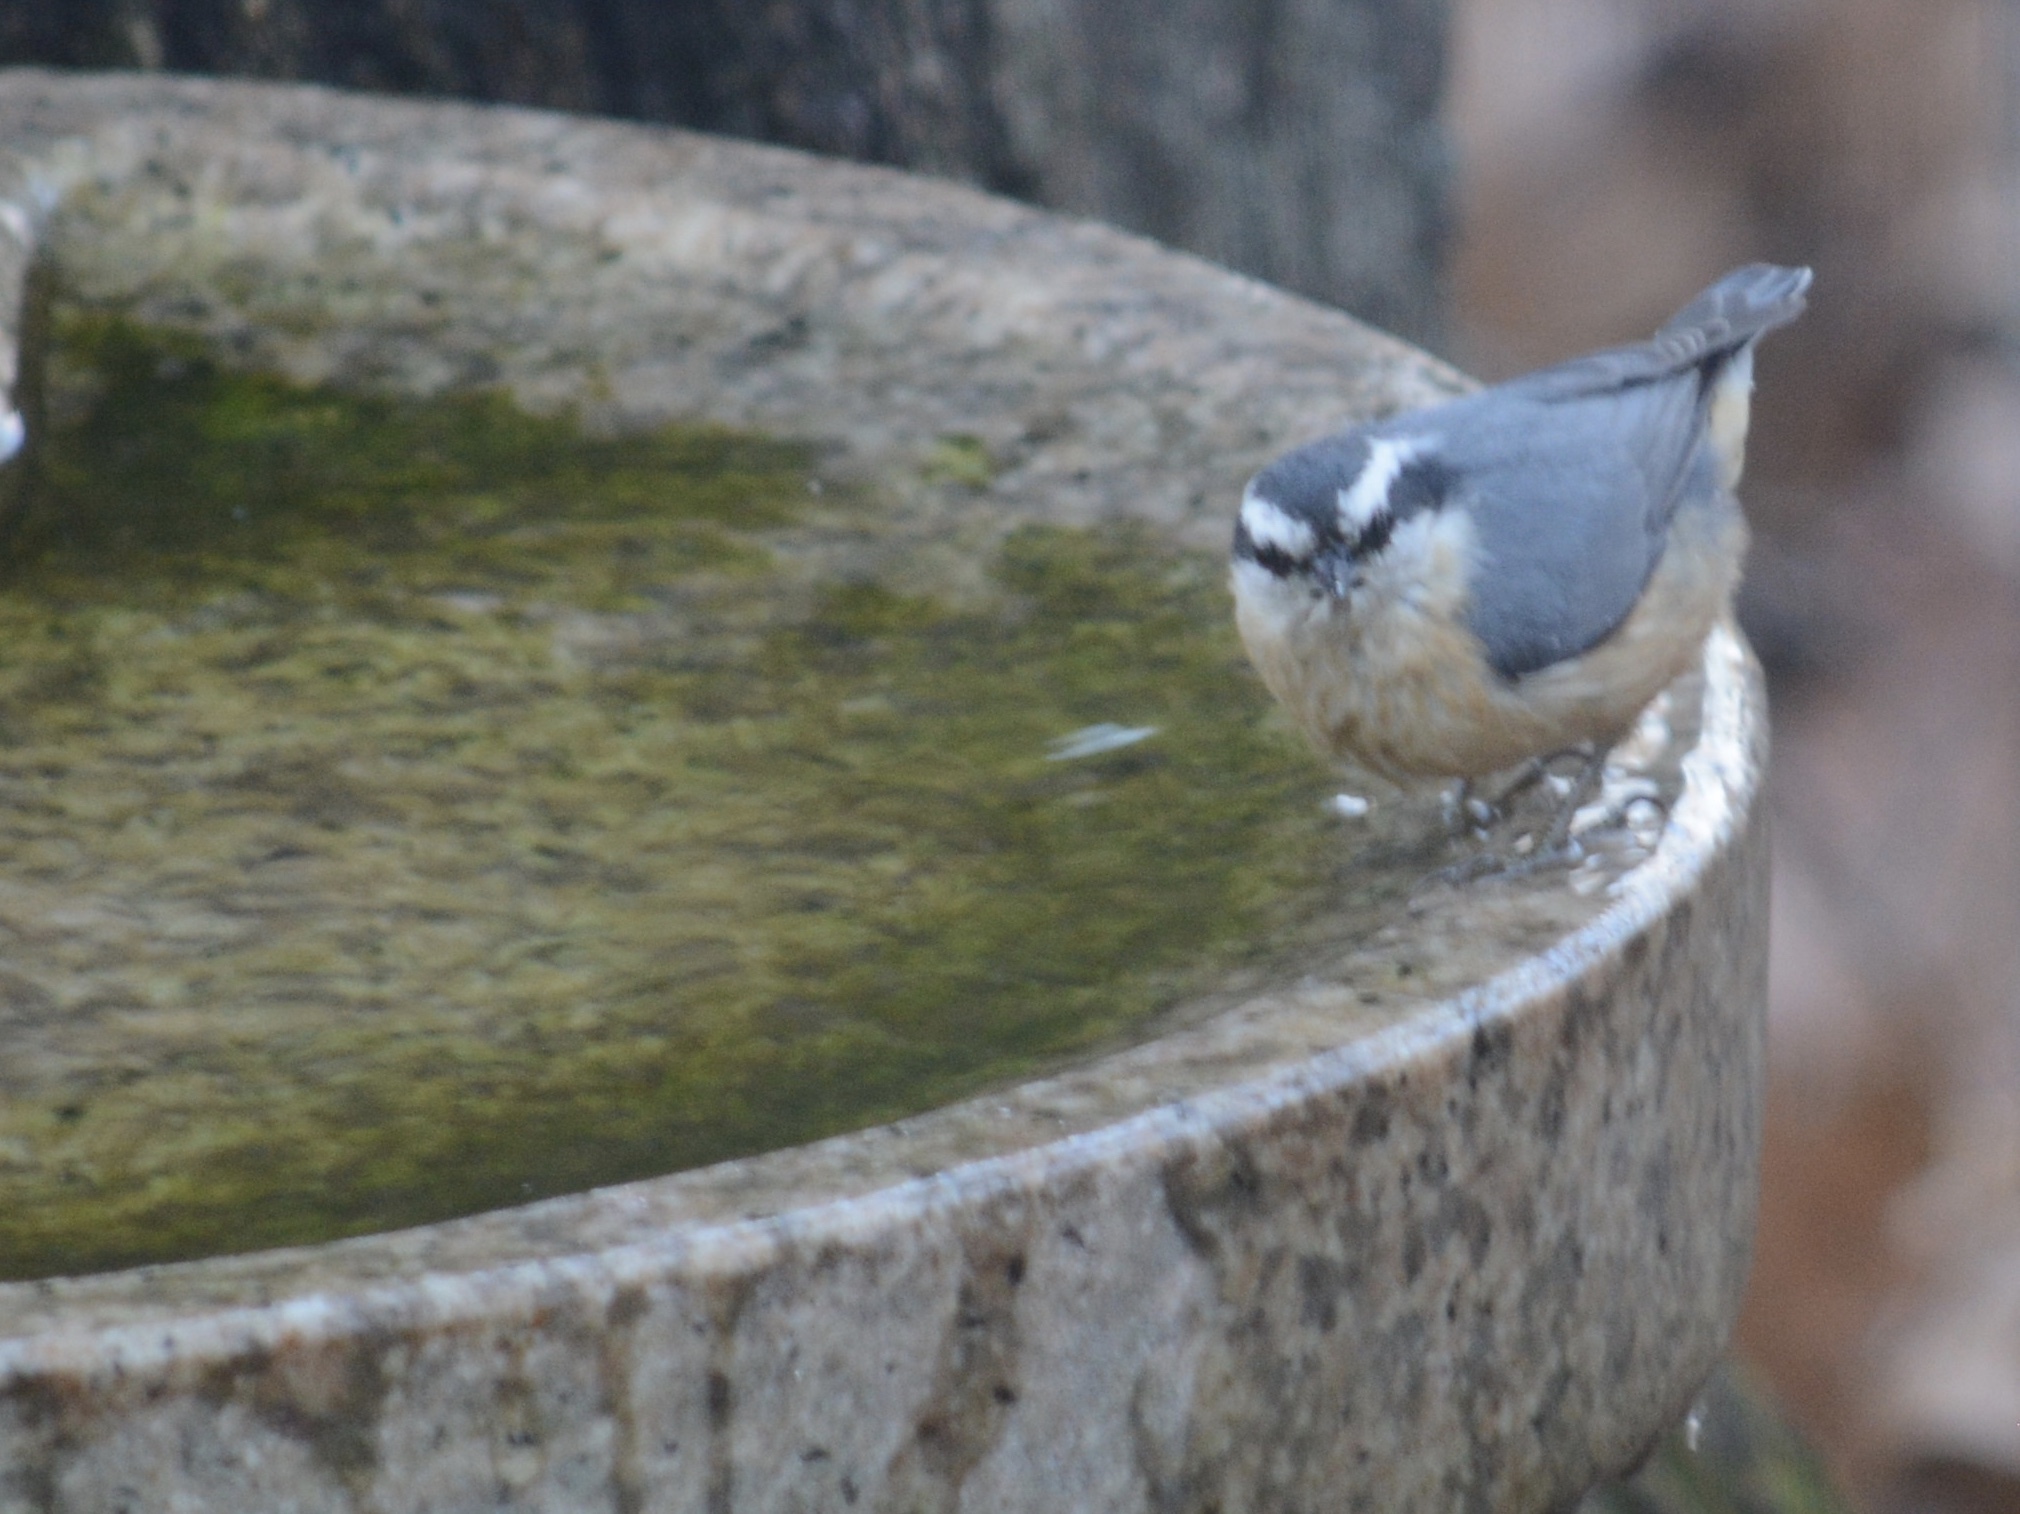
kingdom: Animalia
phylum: Chordata
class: Aves
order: Passeriformes
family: Sittidae
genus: Sitta
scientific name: Sitta canadensis
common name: Red-breasted nuthatch
